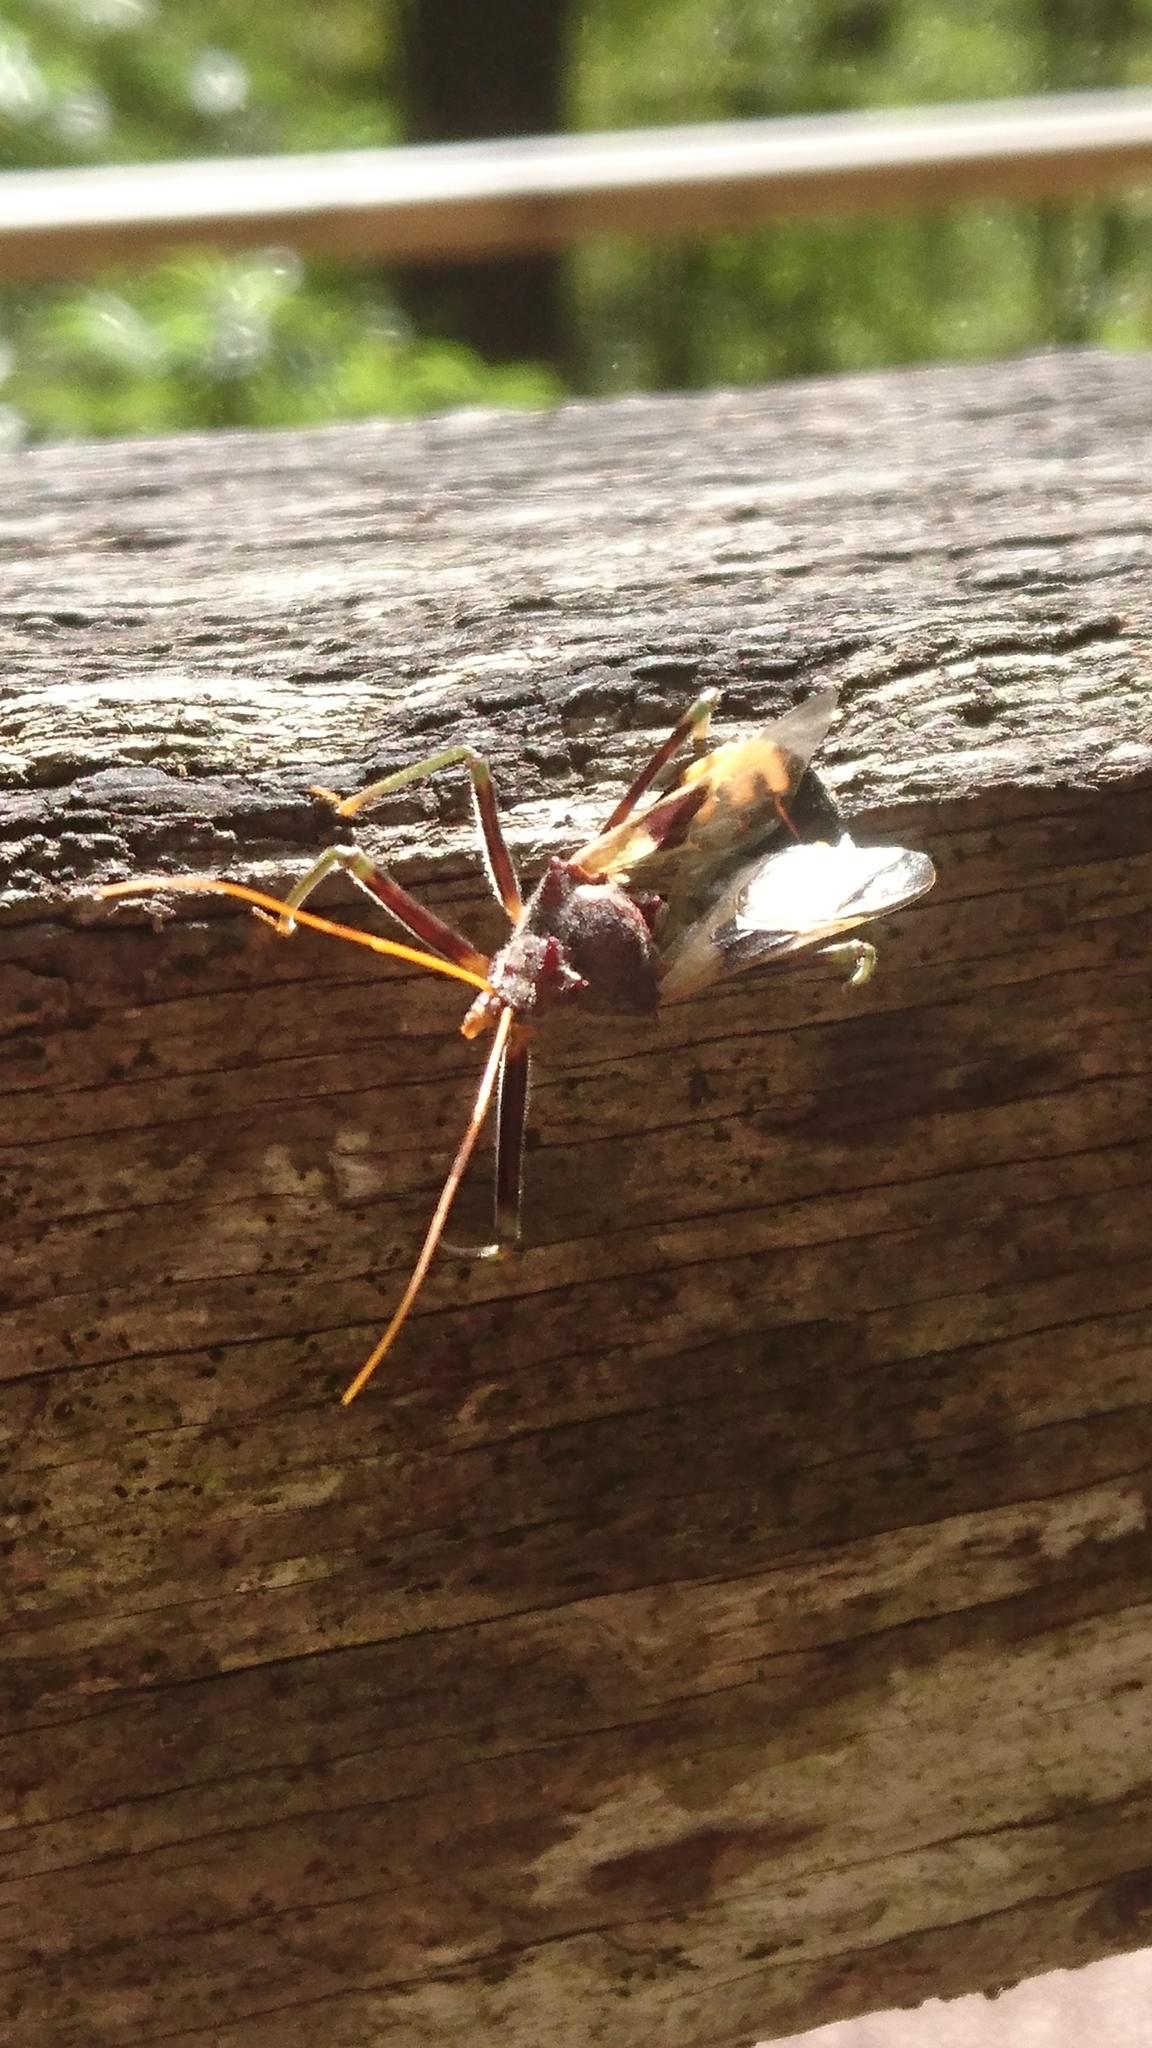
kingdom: Animalia
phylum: Arthropoda
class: Insecta
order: Hemiptera
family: Reduviidae
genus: Pristhesancus
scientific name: Pristhesancus plagipennis
